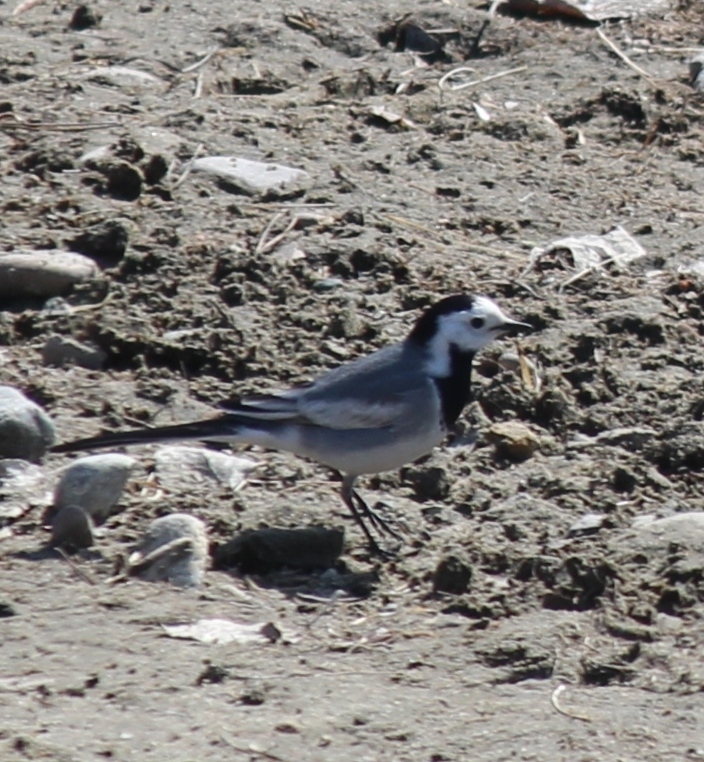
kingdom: Animalia
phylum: Chordata
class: Aves
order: Passeriformes
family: Motacillidae
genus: Motacilla
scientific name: Motacilla alba
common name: White wagtail
